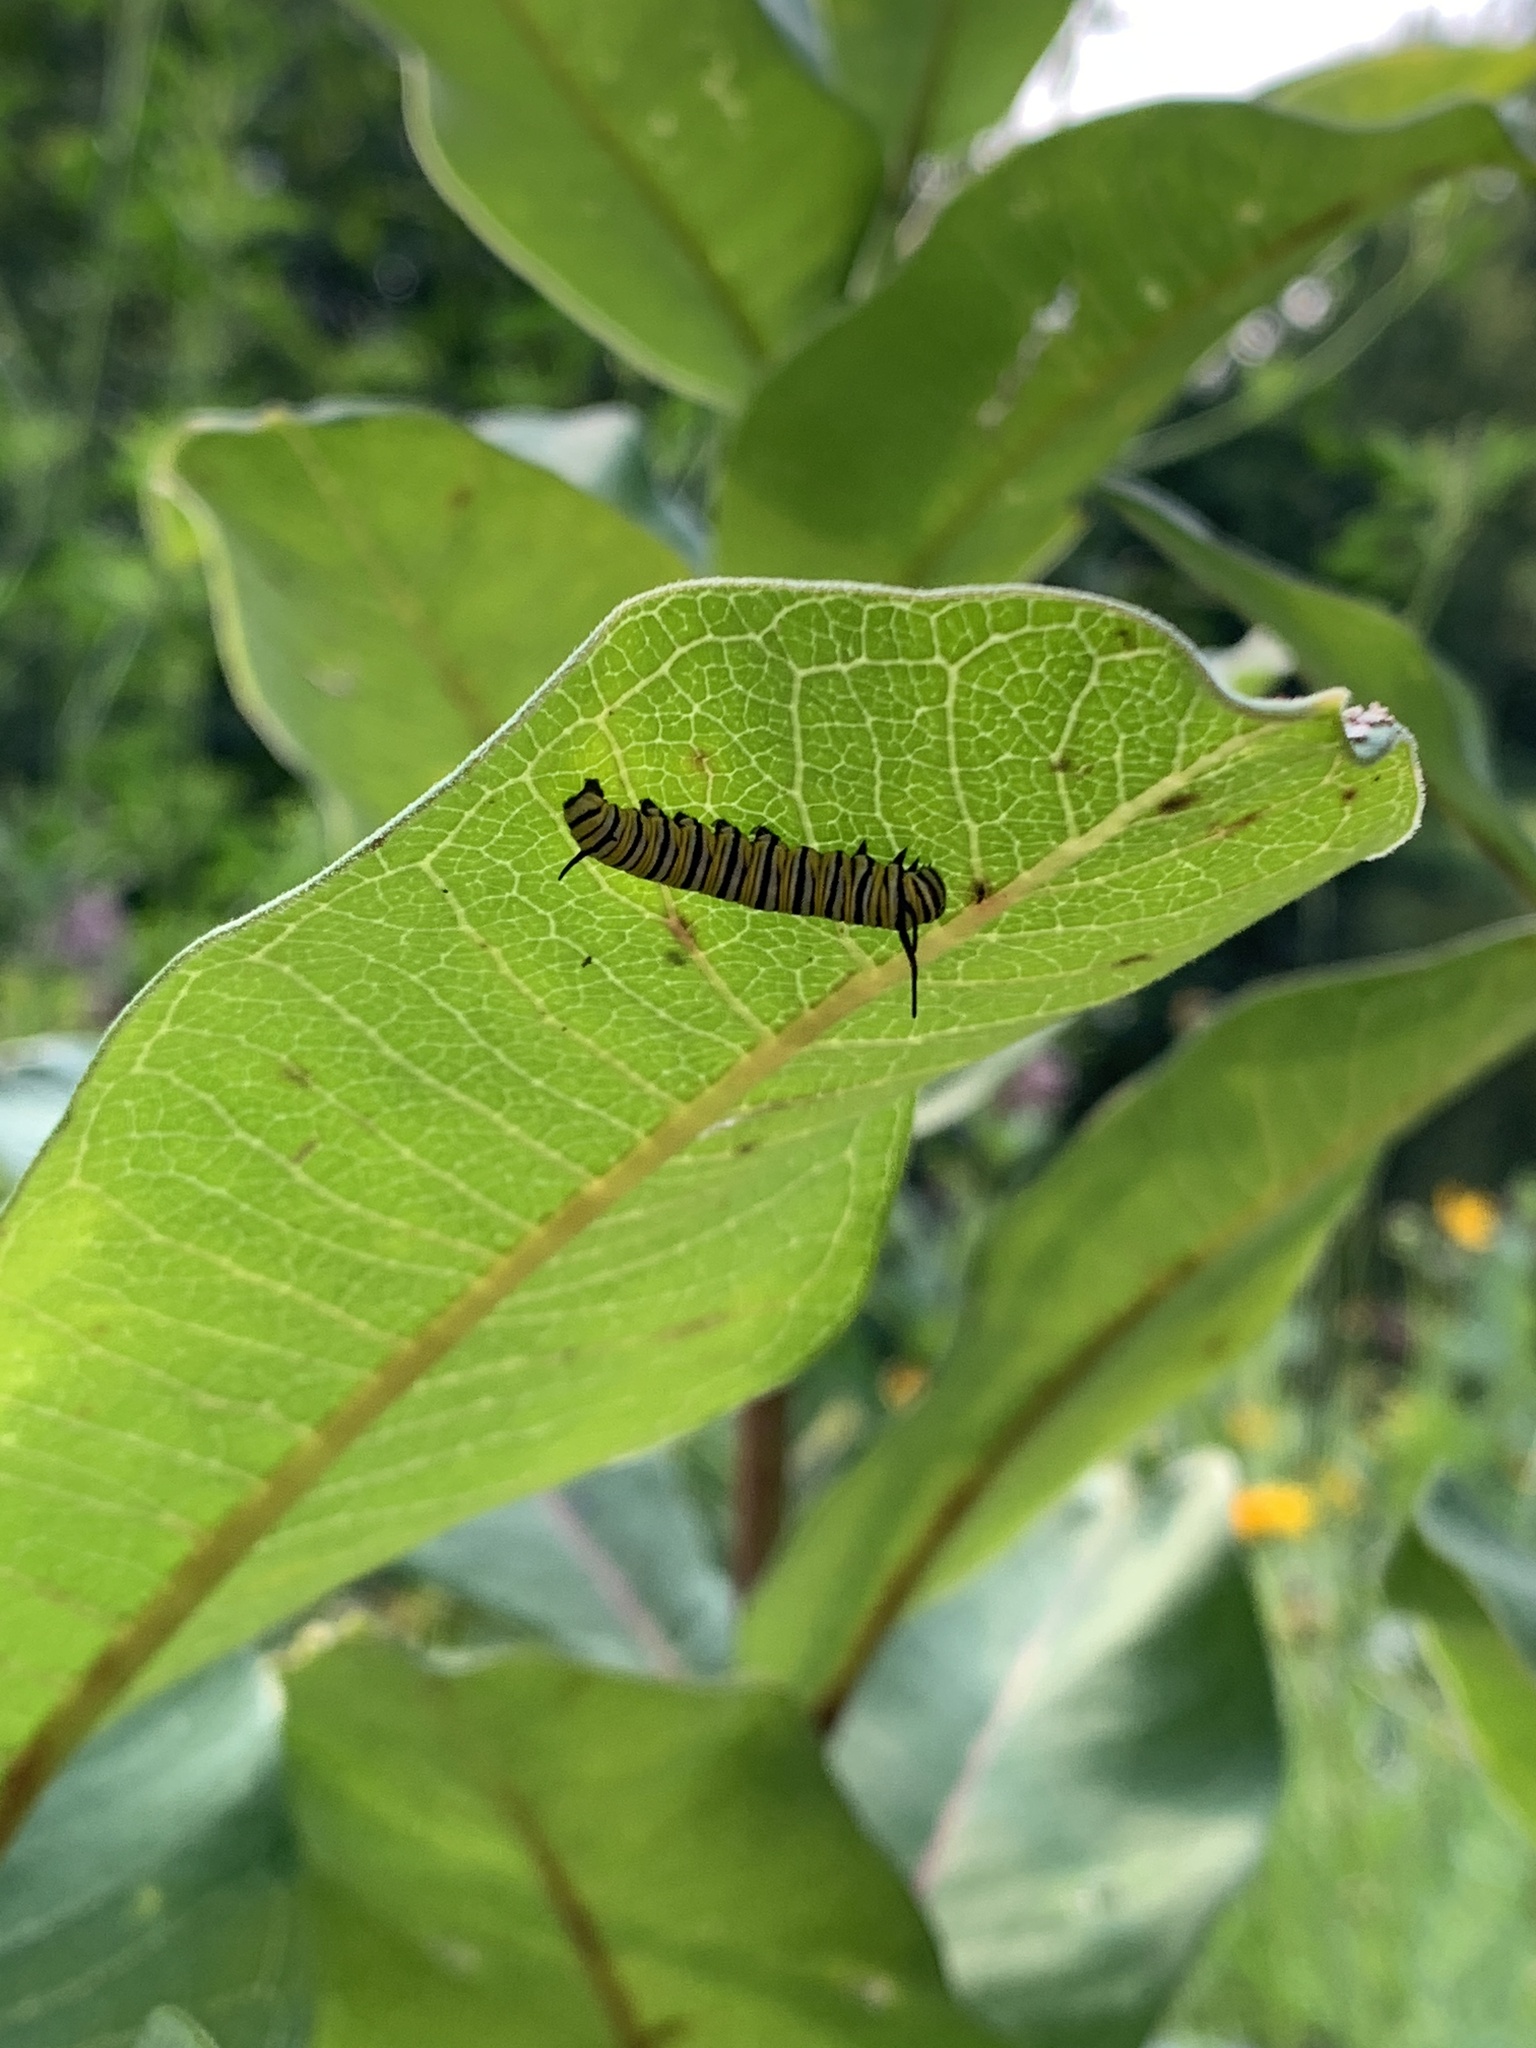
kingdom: Animalia
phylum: Arthropoda
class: Insecta
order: Lepidoptera
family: Nymphalidae
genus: Danaus
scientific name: Danaus plexippus
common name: Monarch
